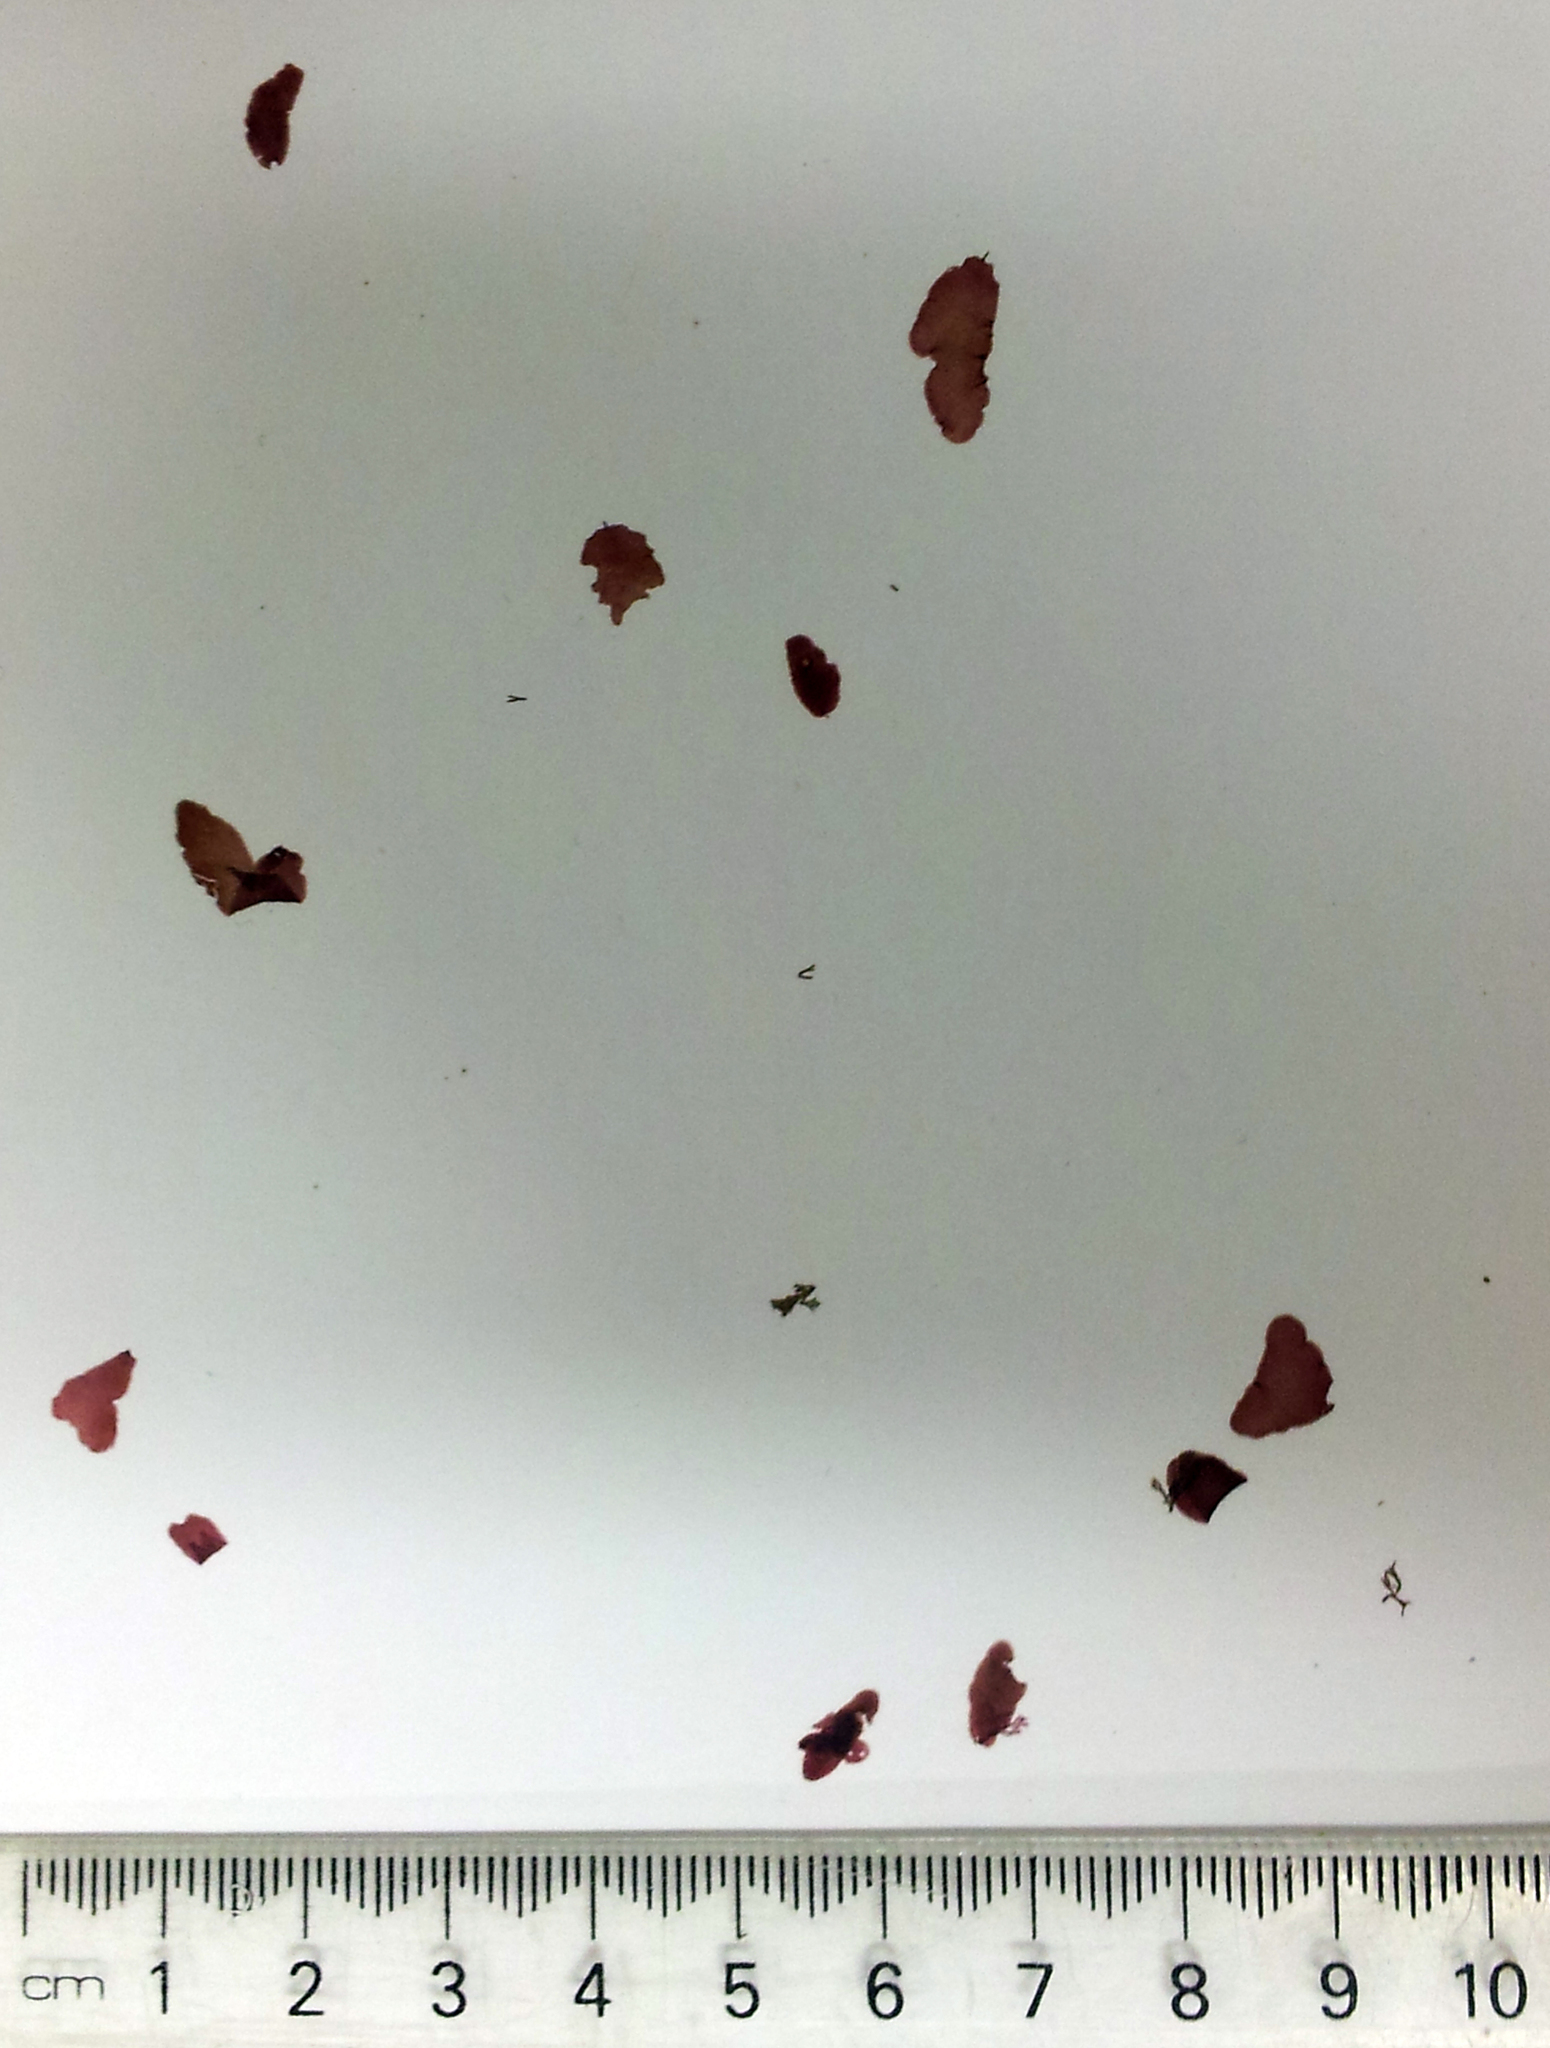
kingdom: Plantae
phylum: Rhodophyta
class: Florideophyceae
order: Ceramiales
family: Delesseriaceae
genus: Nancythalia
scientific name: Nancythalia humilis
